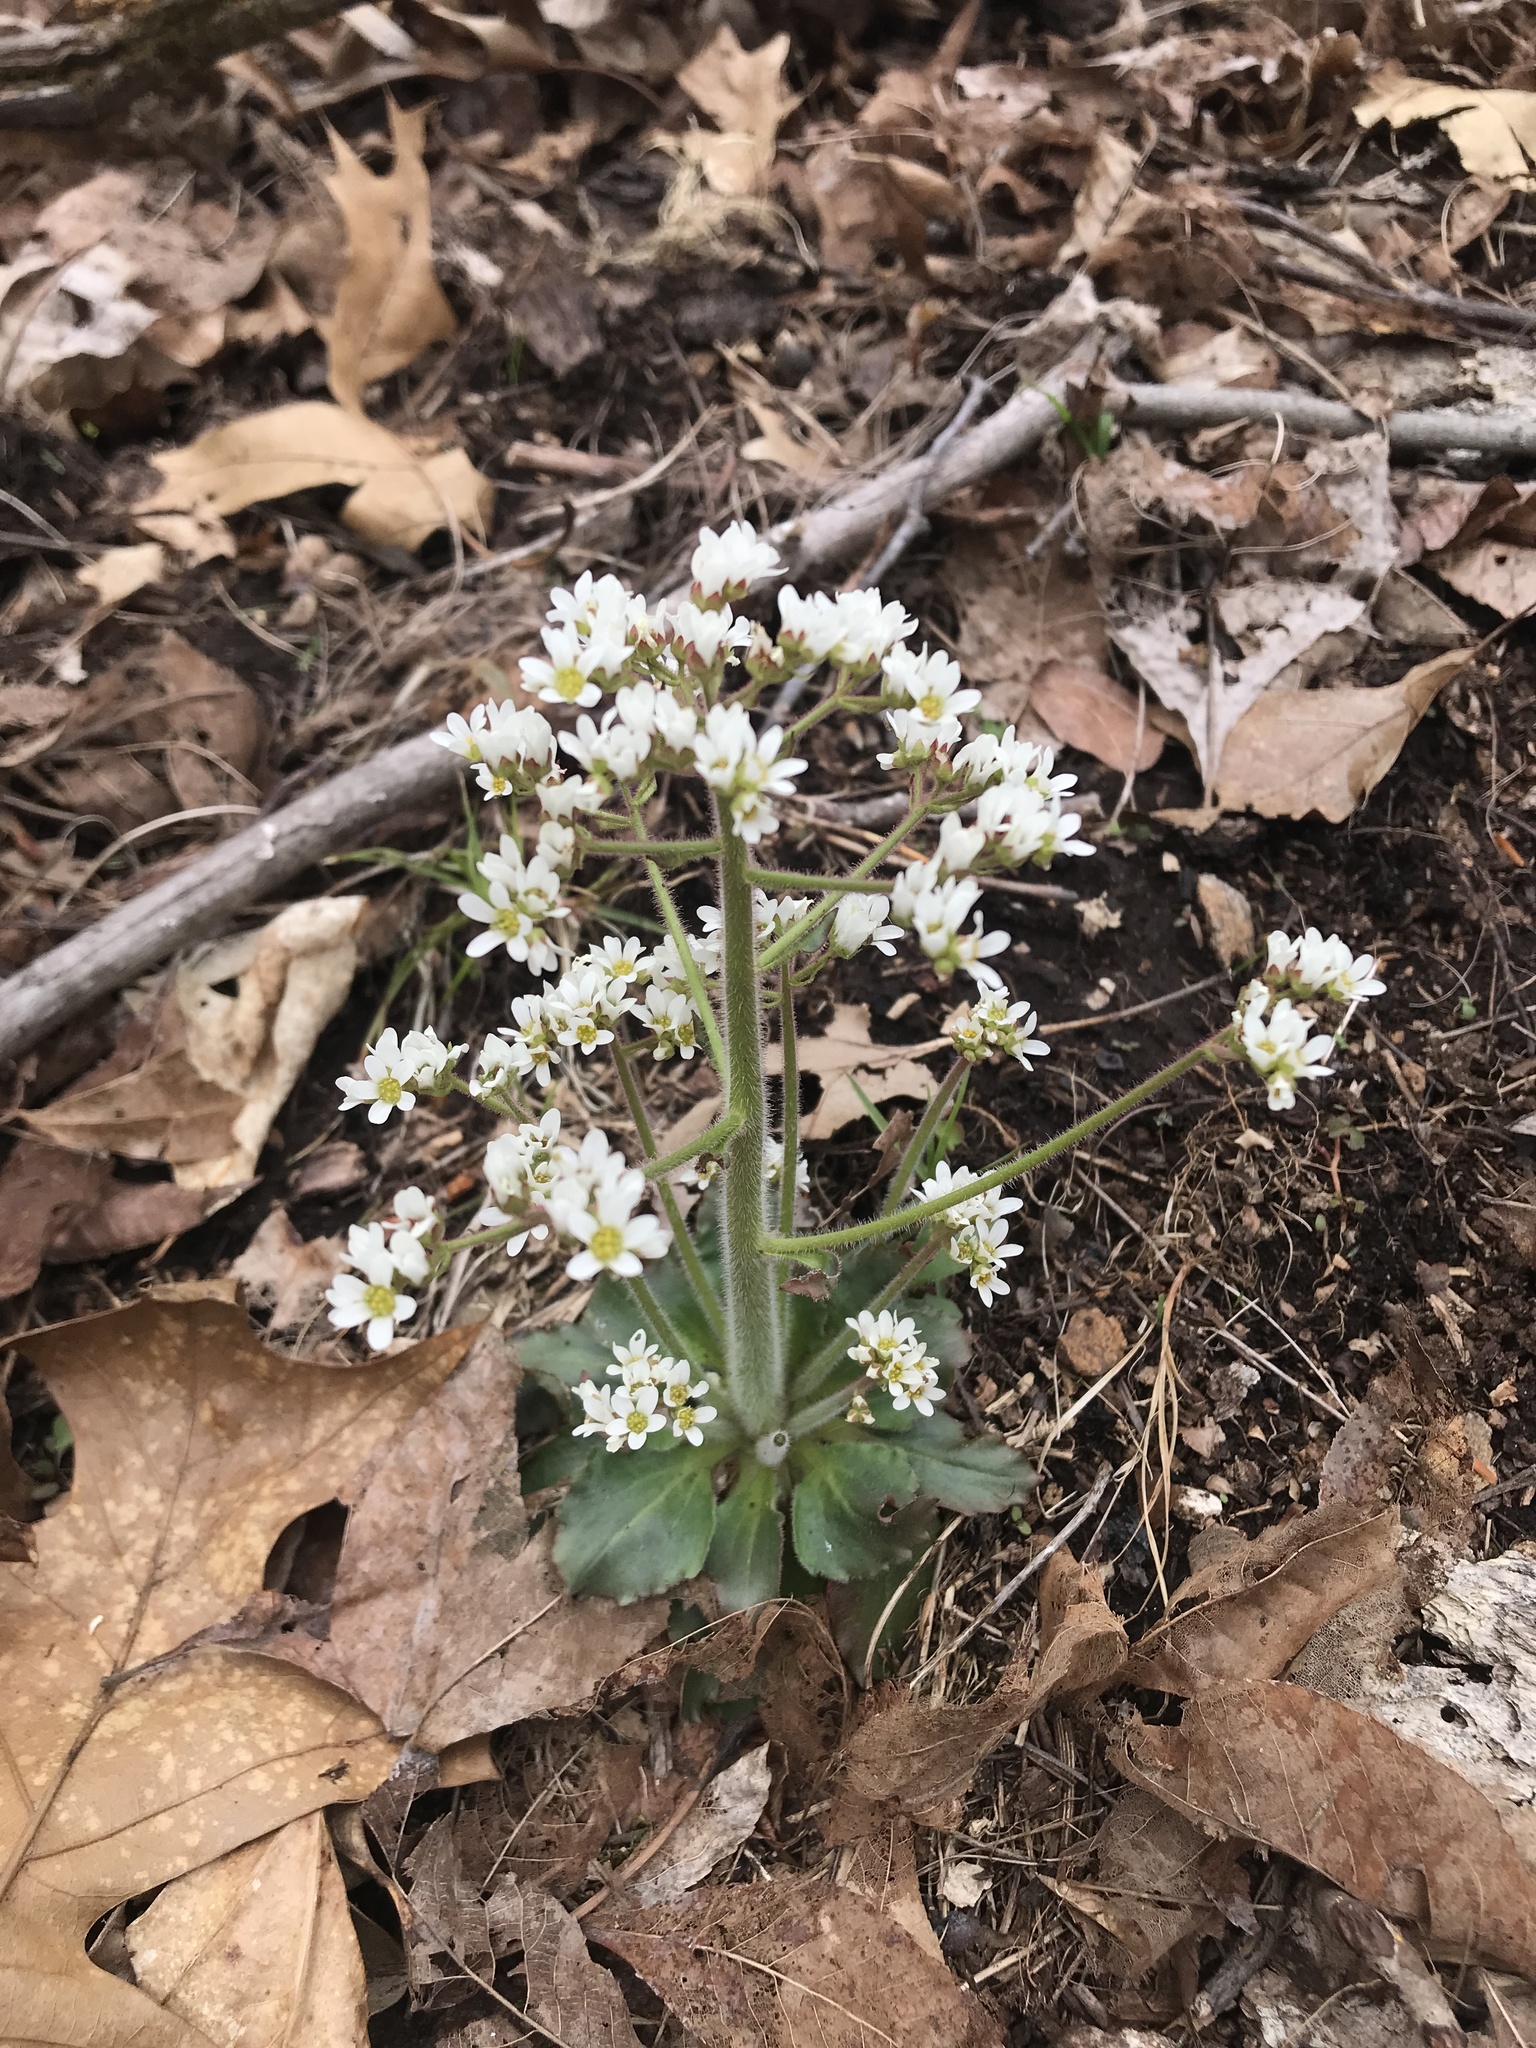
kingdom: Plantae
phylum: Tracheophyta
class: Magnoliopsida
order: Saxifragales
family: Saxifragaceae
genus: Micranthes
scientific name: Micranthes virginiensis
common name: Early saxifrage
